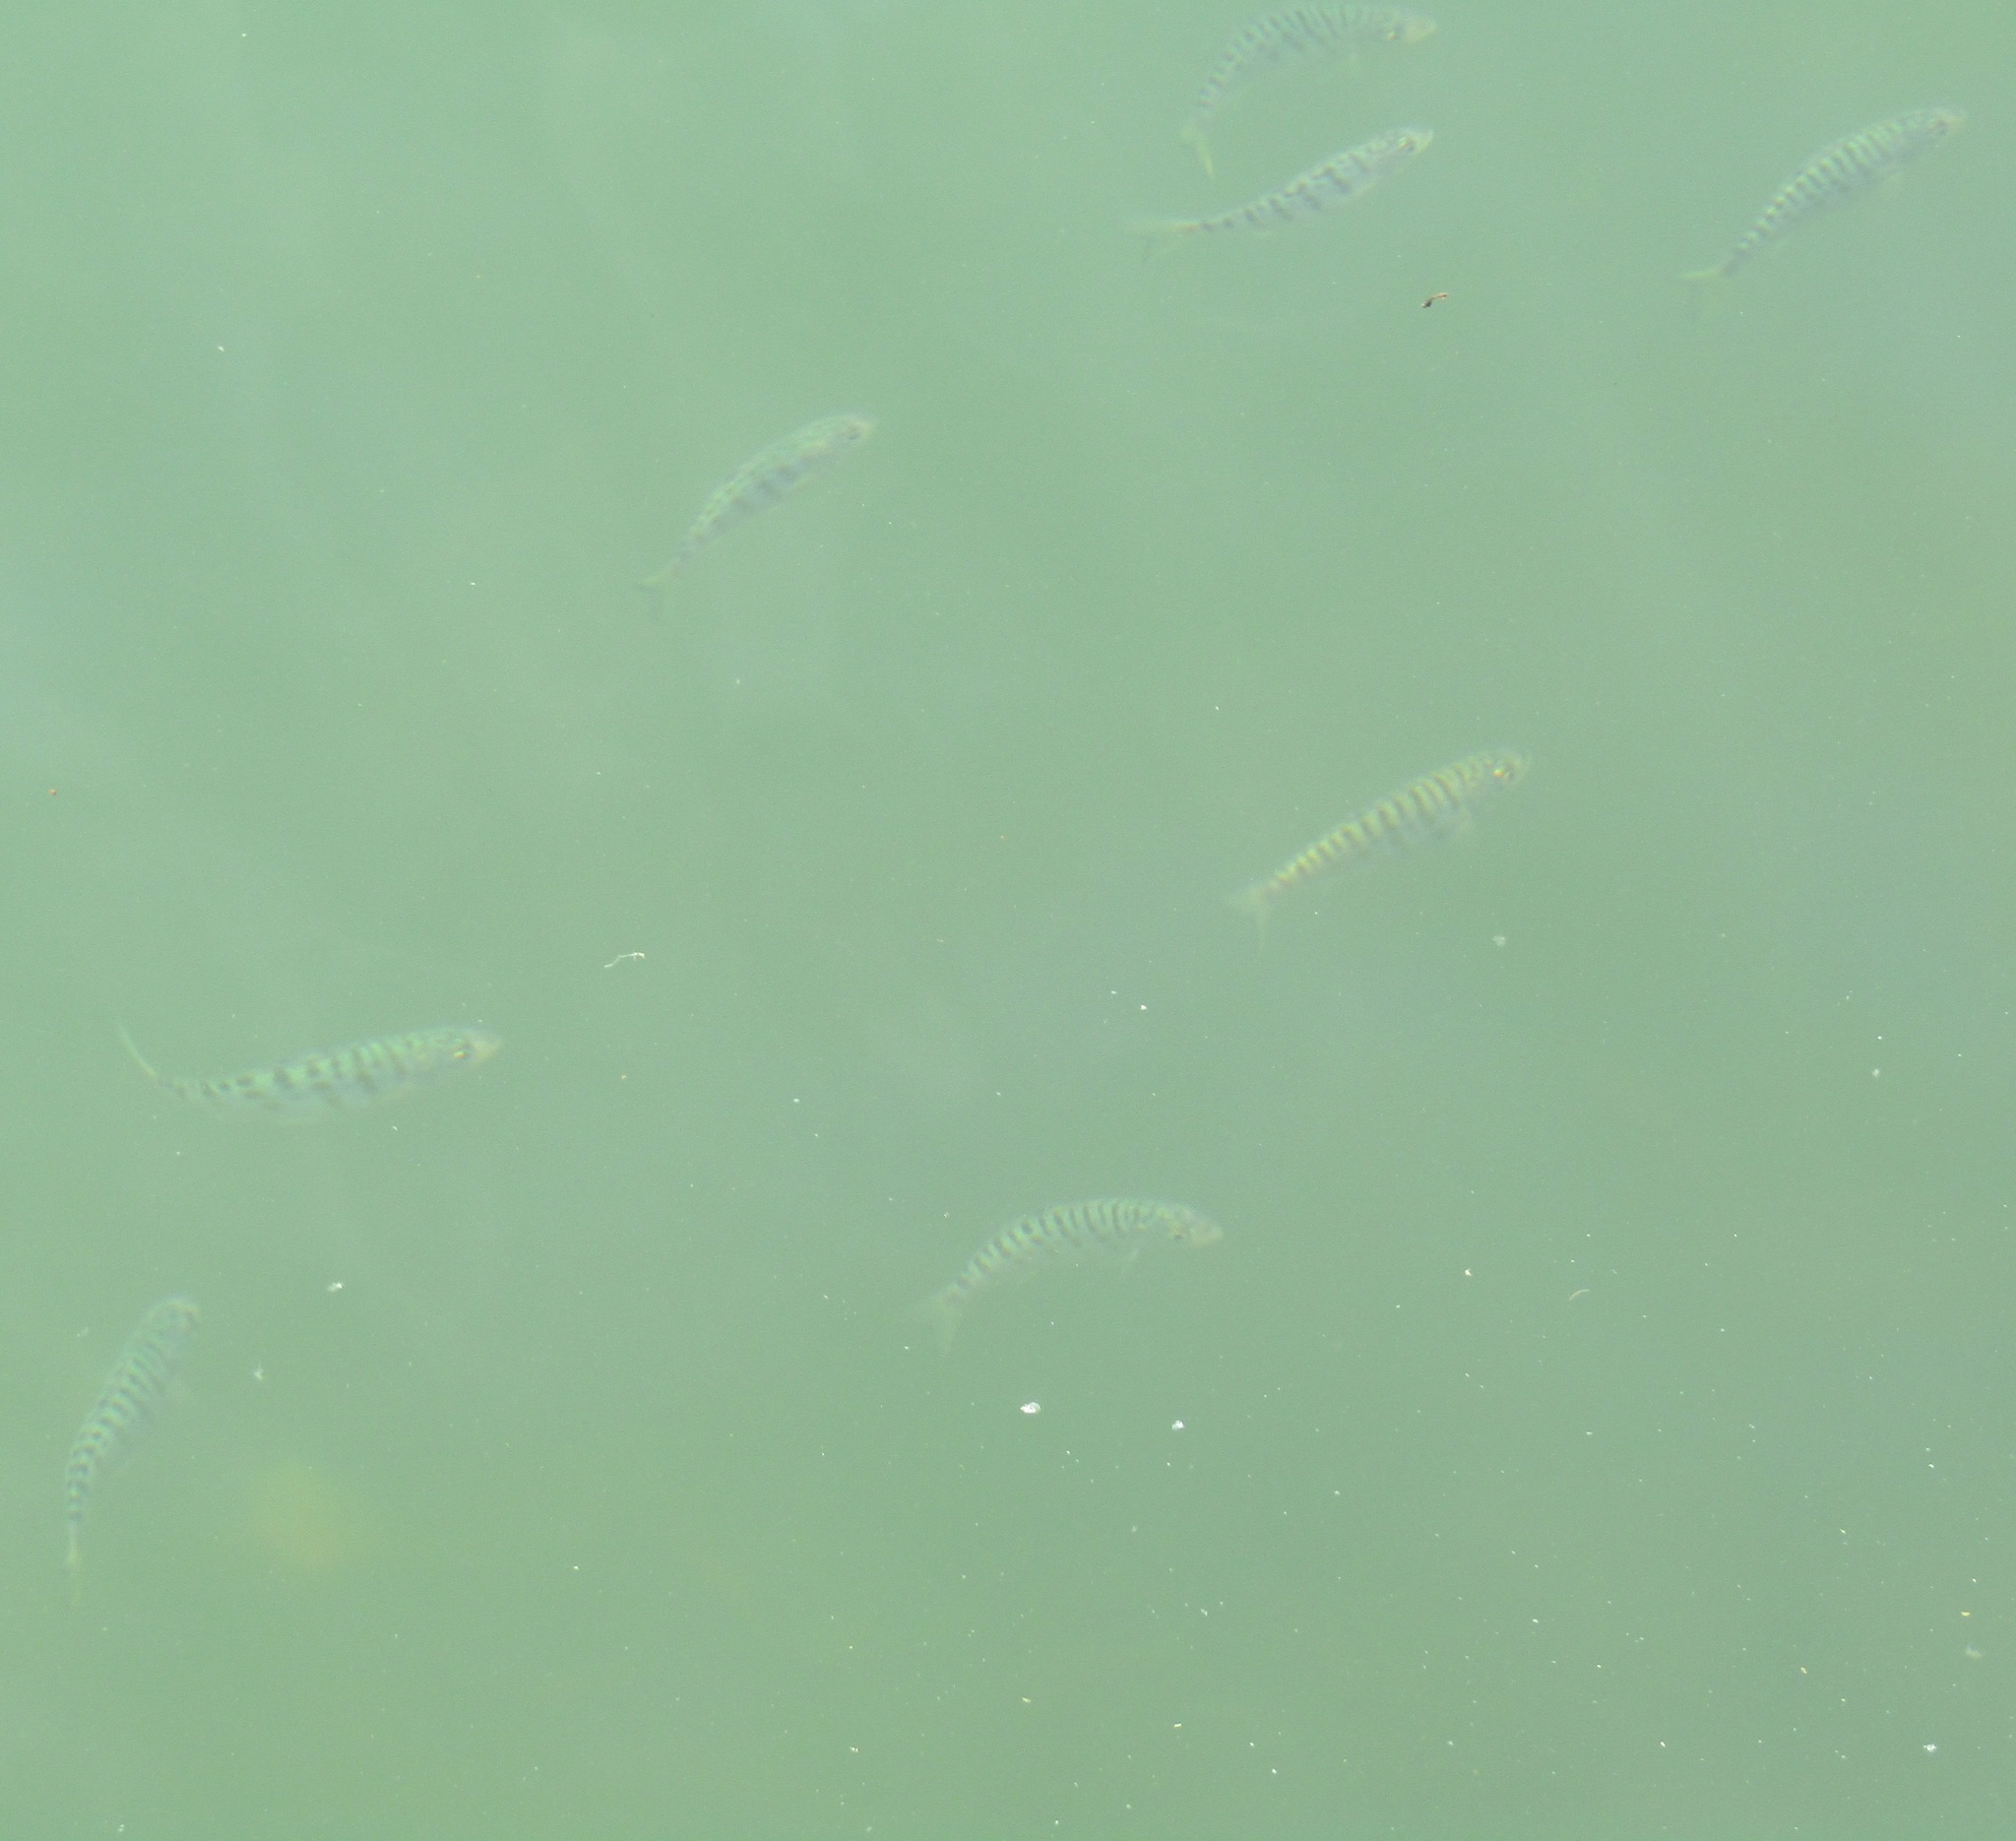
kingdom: Animalia
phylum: Chordata
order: Perciformes
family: Arripidae
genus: Arripis
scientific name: Arripis trutta
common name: Kahawai
